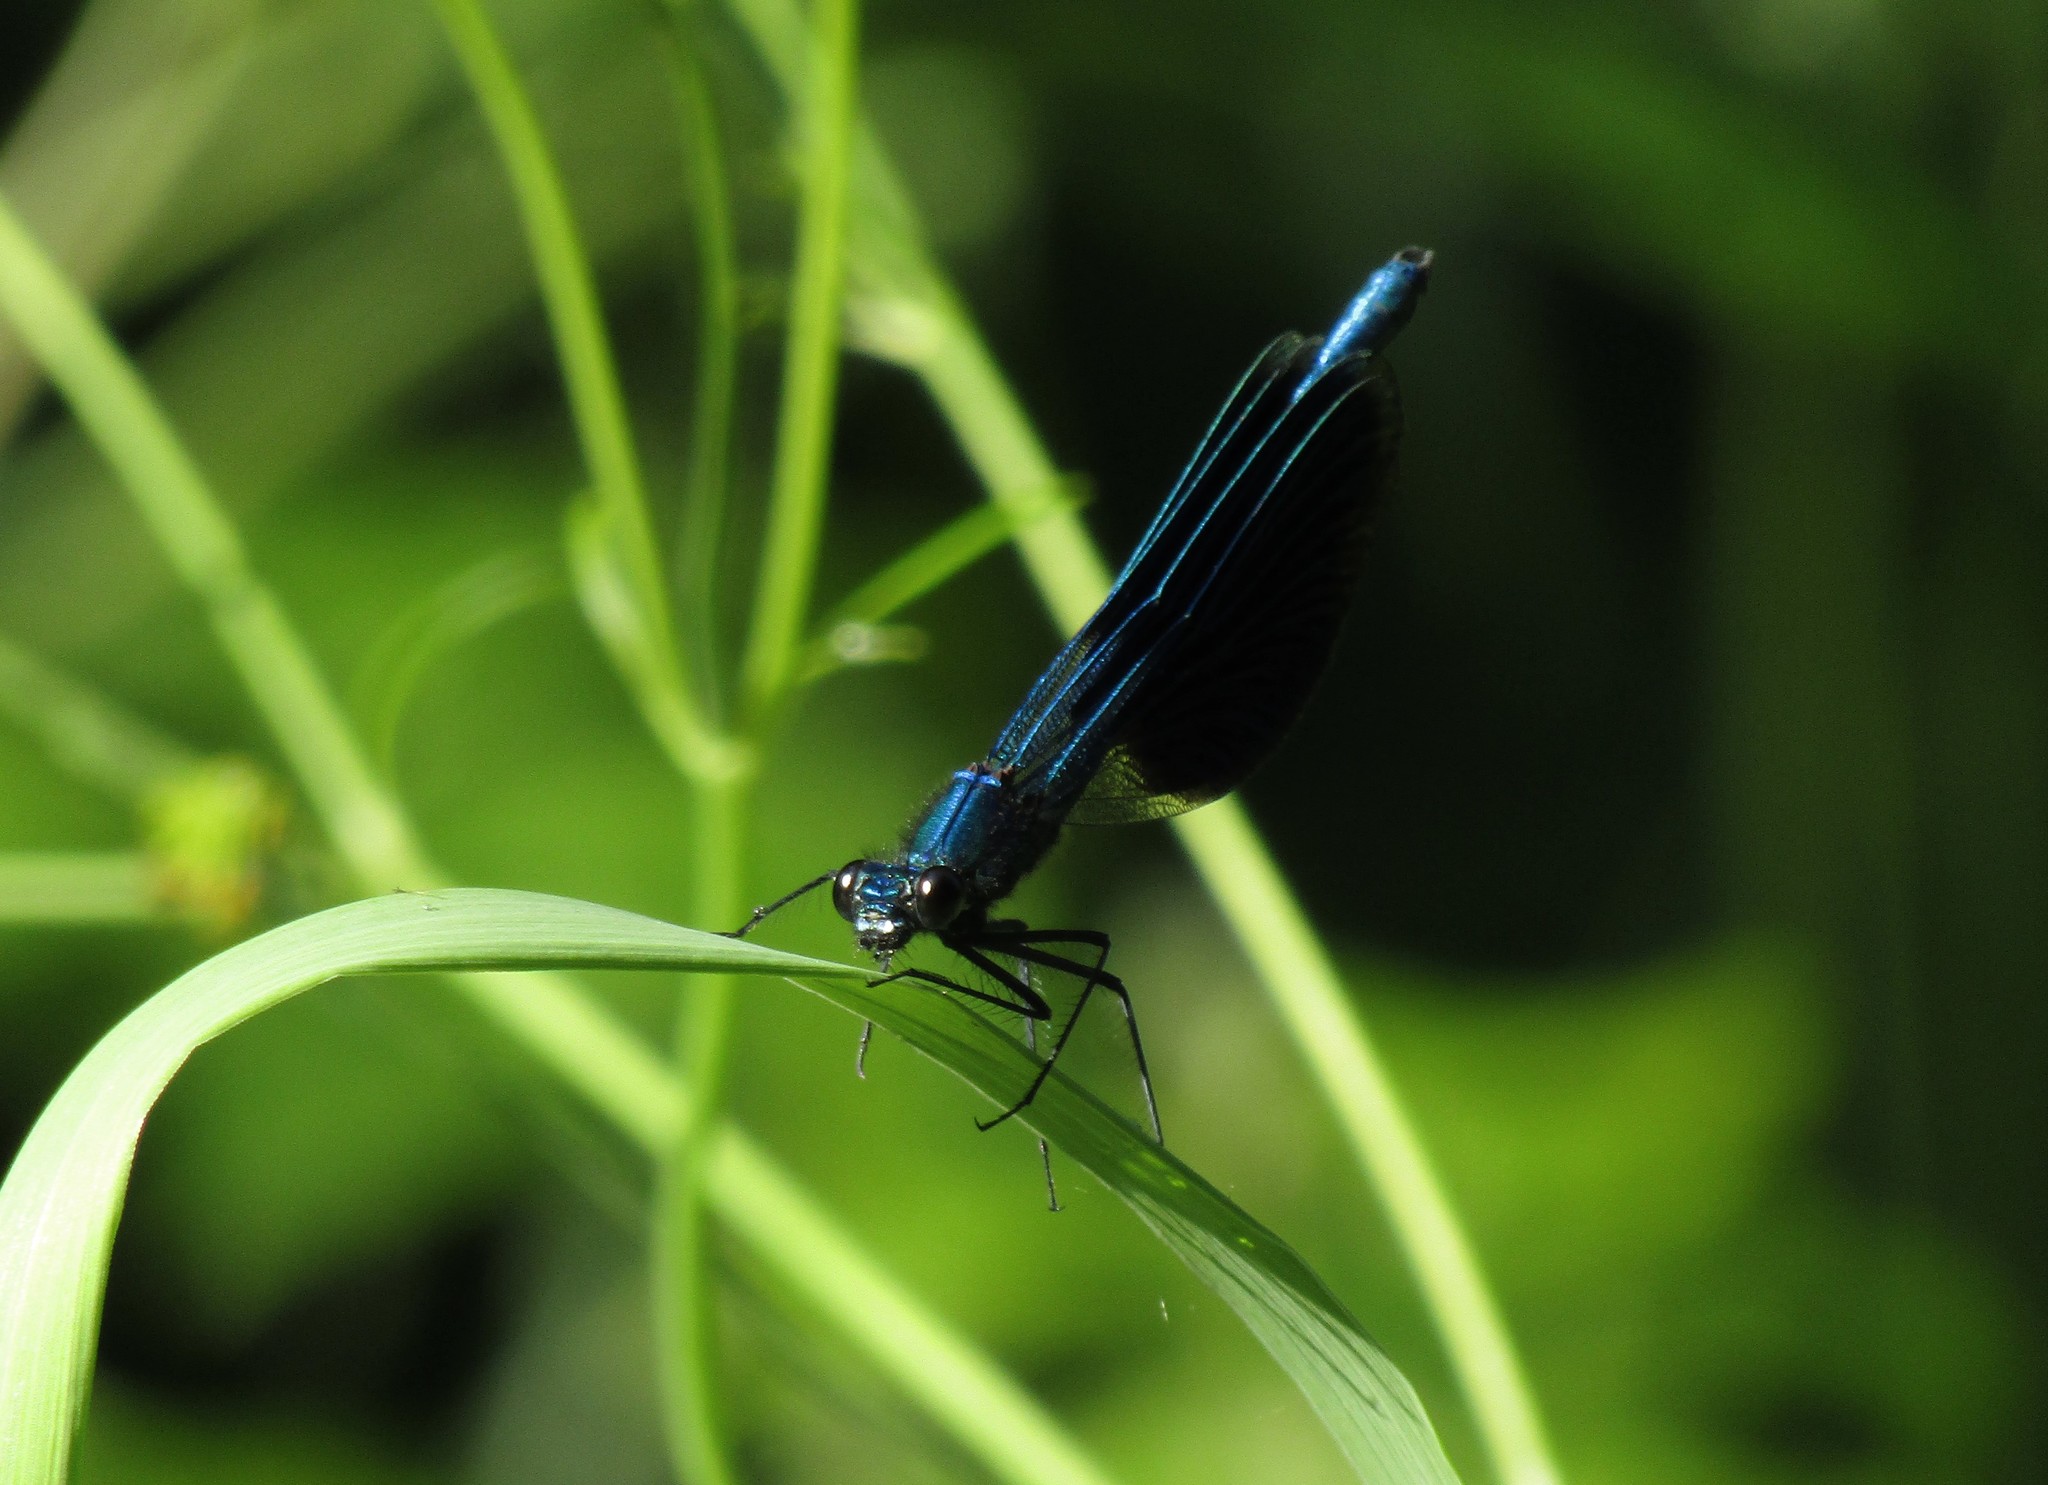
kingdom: Animalia
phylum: Arthropoda
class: Insecta
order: Odonata
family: Calopterygidae
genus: Calopteryx
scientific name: Calopteryx splendens
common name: Banded demoiselle
